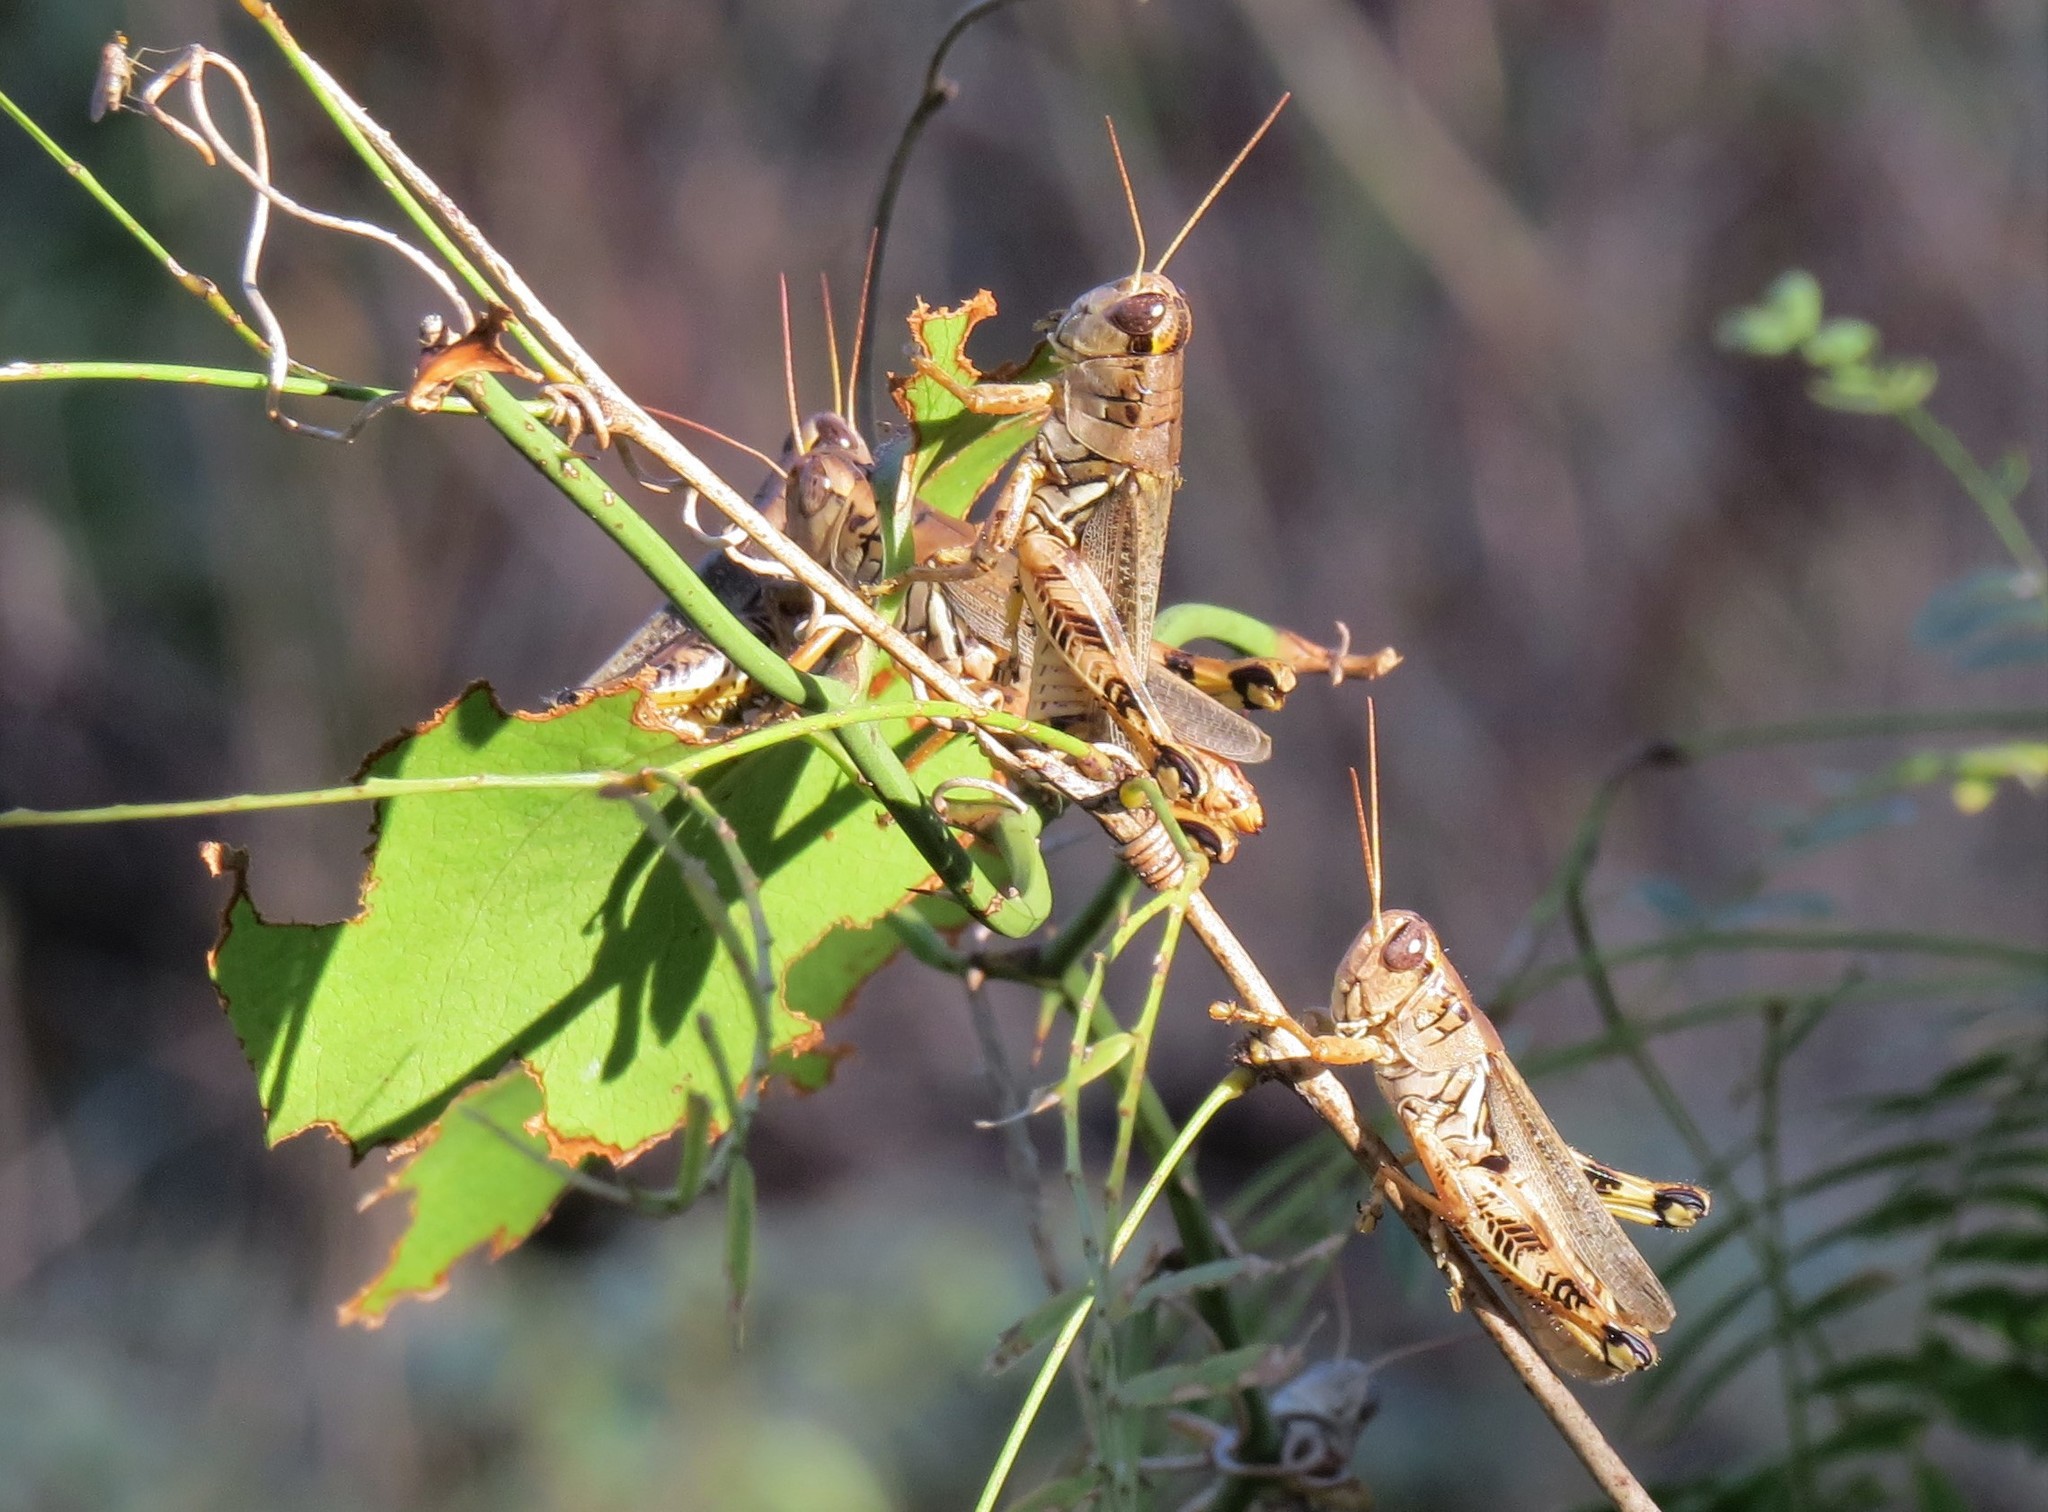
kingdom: Animalia
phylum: Arthropoda
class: Insecta
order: Orthoptera
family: Acrididae
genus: Melanoplus
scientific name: Melanoplus ponderosus
